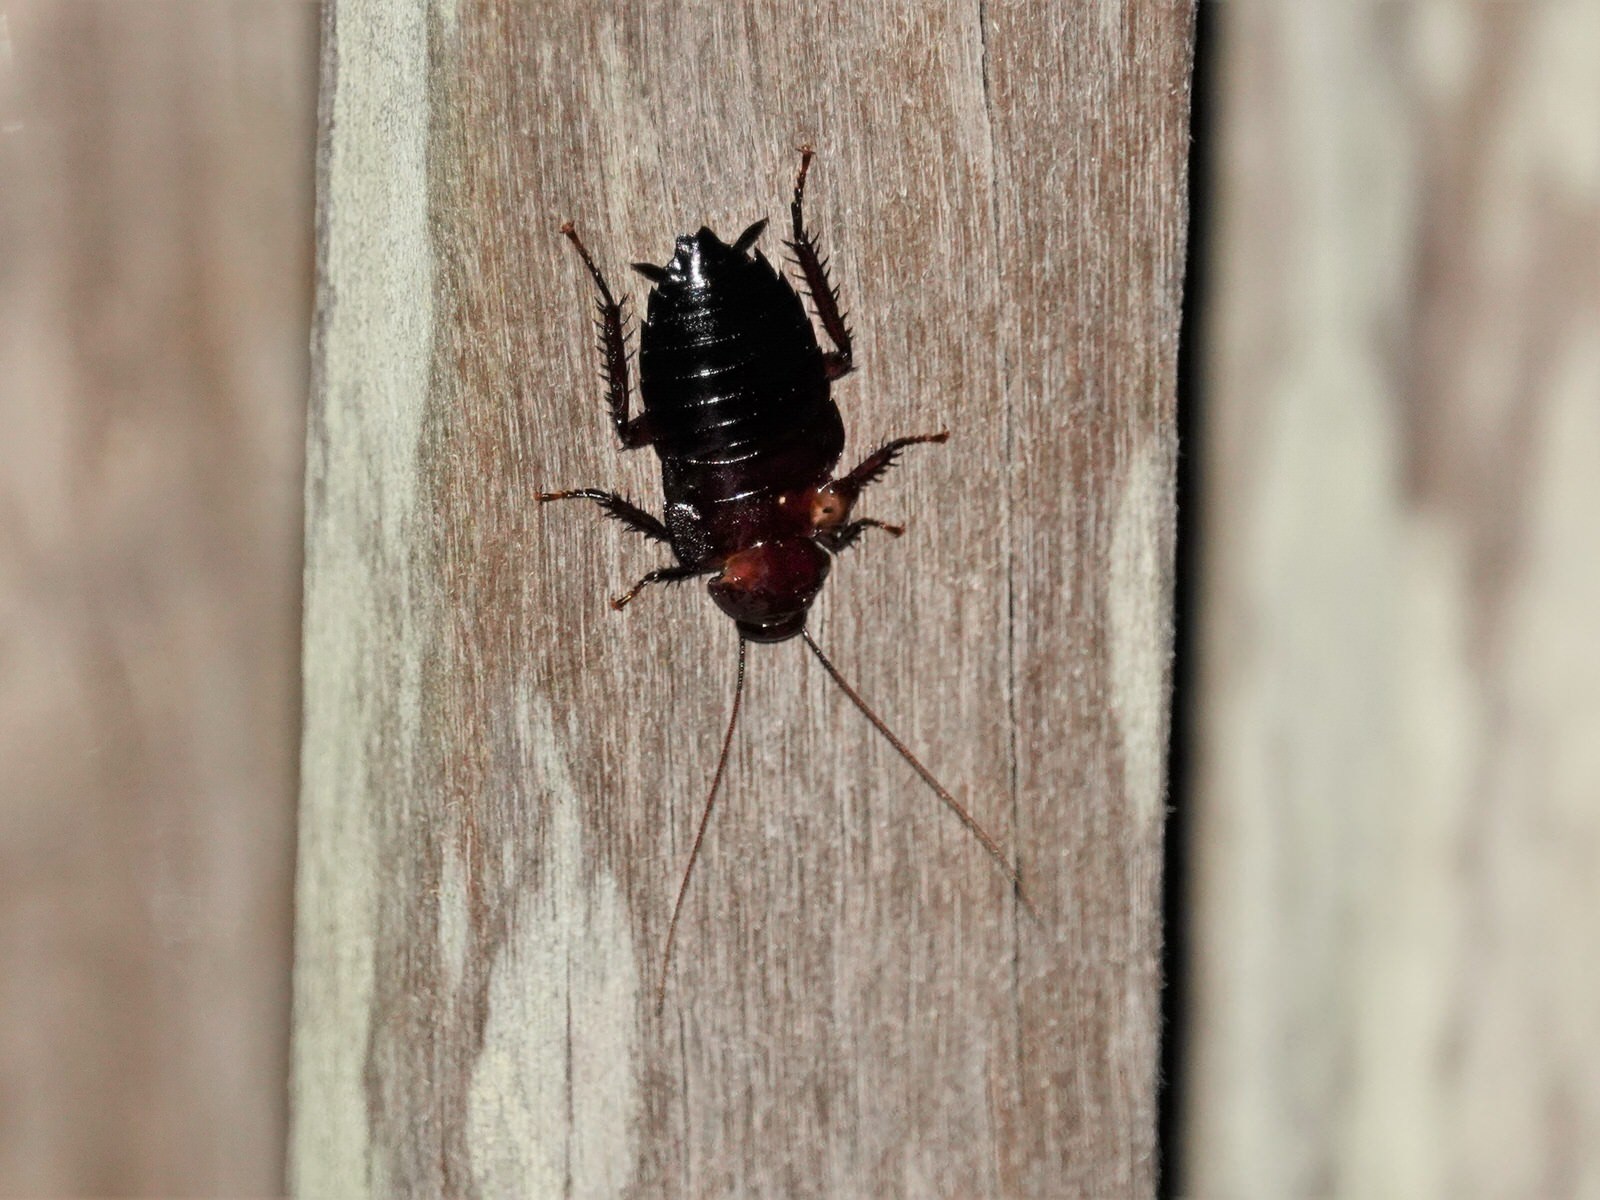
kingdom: Animalia
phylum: Arthropoda
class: Insecta
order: Blattodea
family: Blattidae
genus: Maoriblatta
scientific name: Maoriblatta novaeseelandiae
